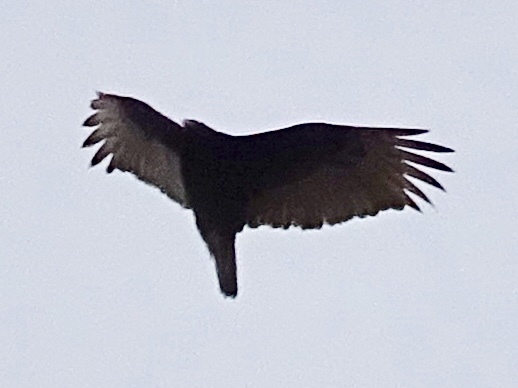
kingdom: Animalia
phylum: Chordata
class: Aves
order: Accipitriformes
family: Cathartidae
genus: Cathartes
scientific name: Cathartes aura
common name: Turkey vulture
